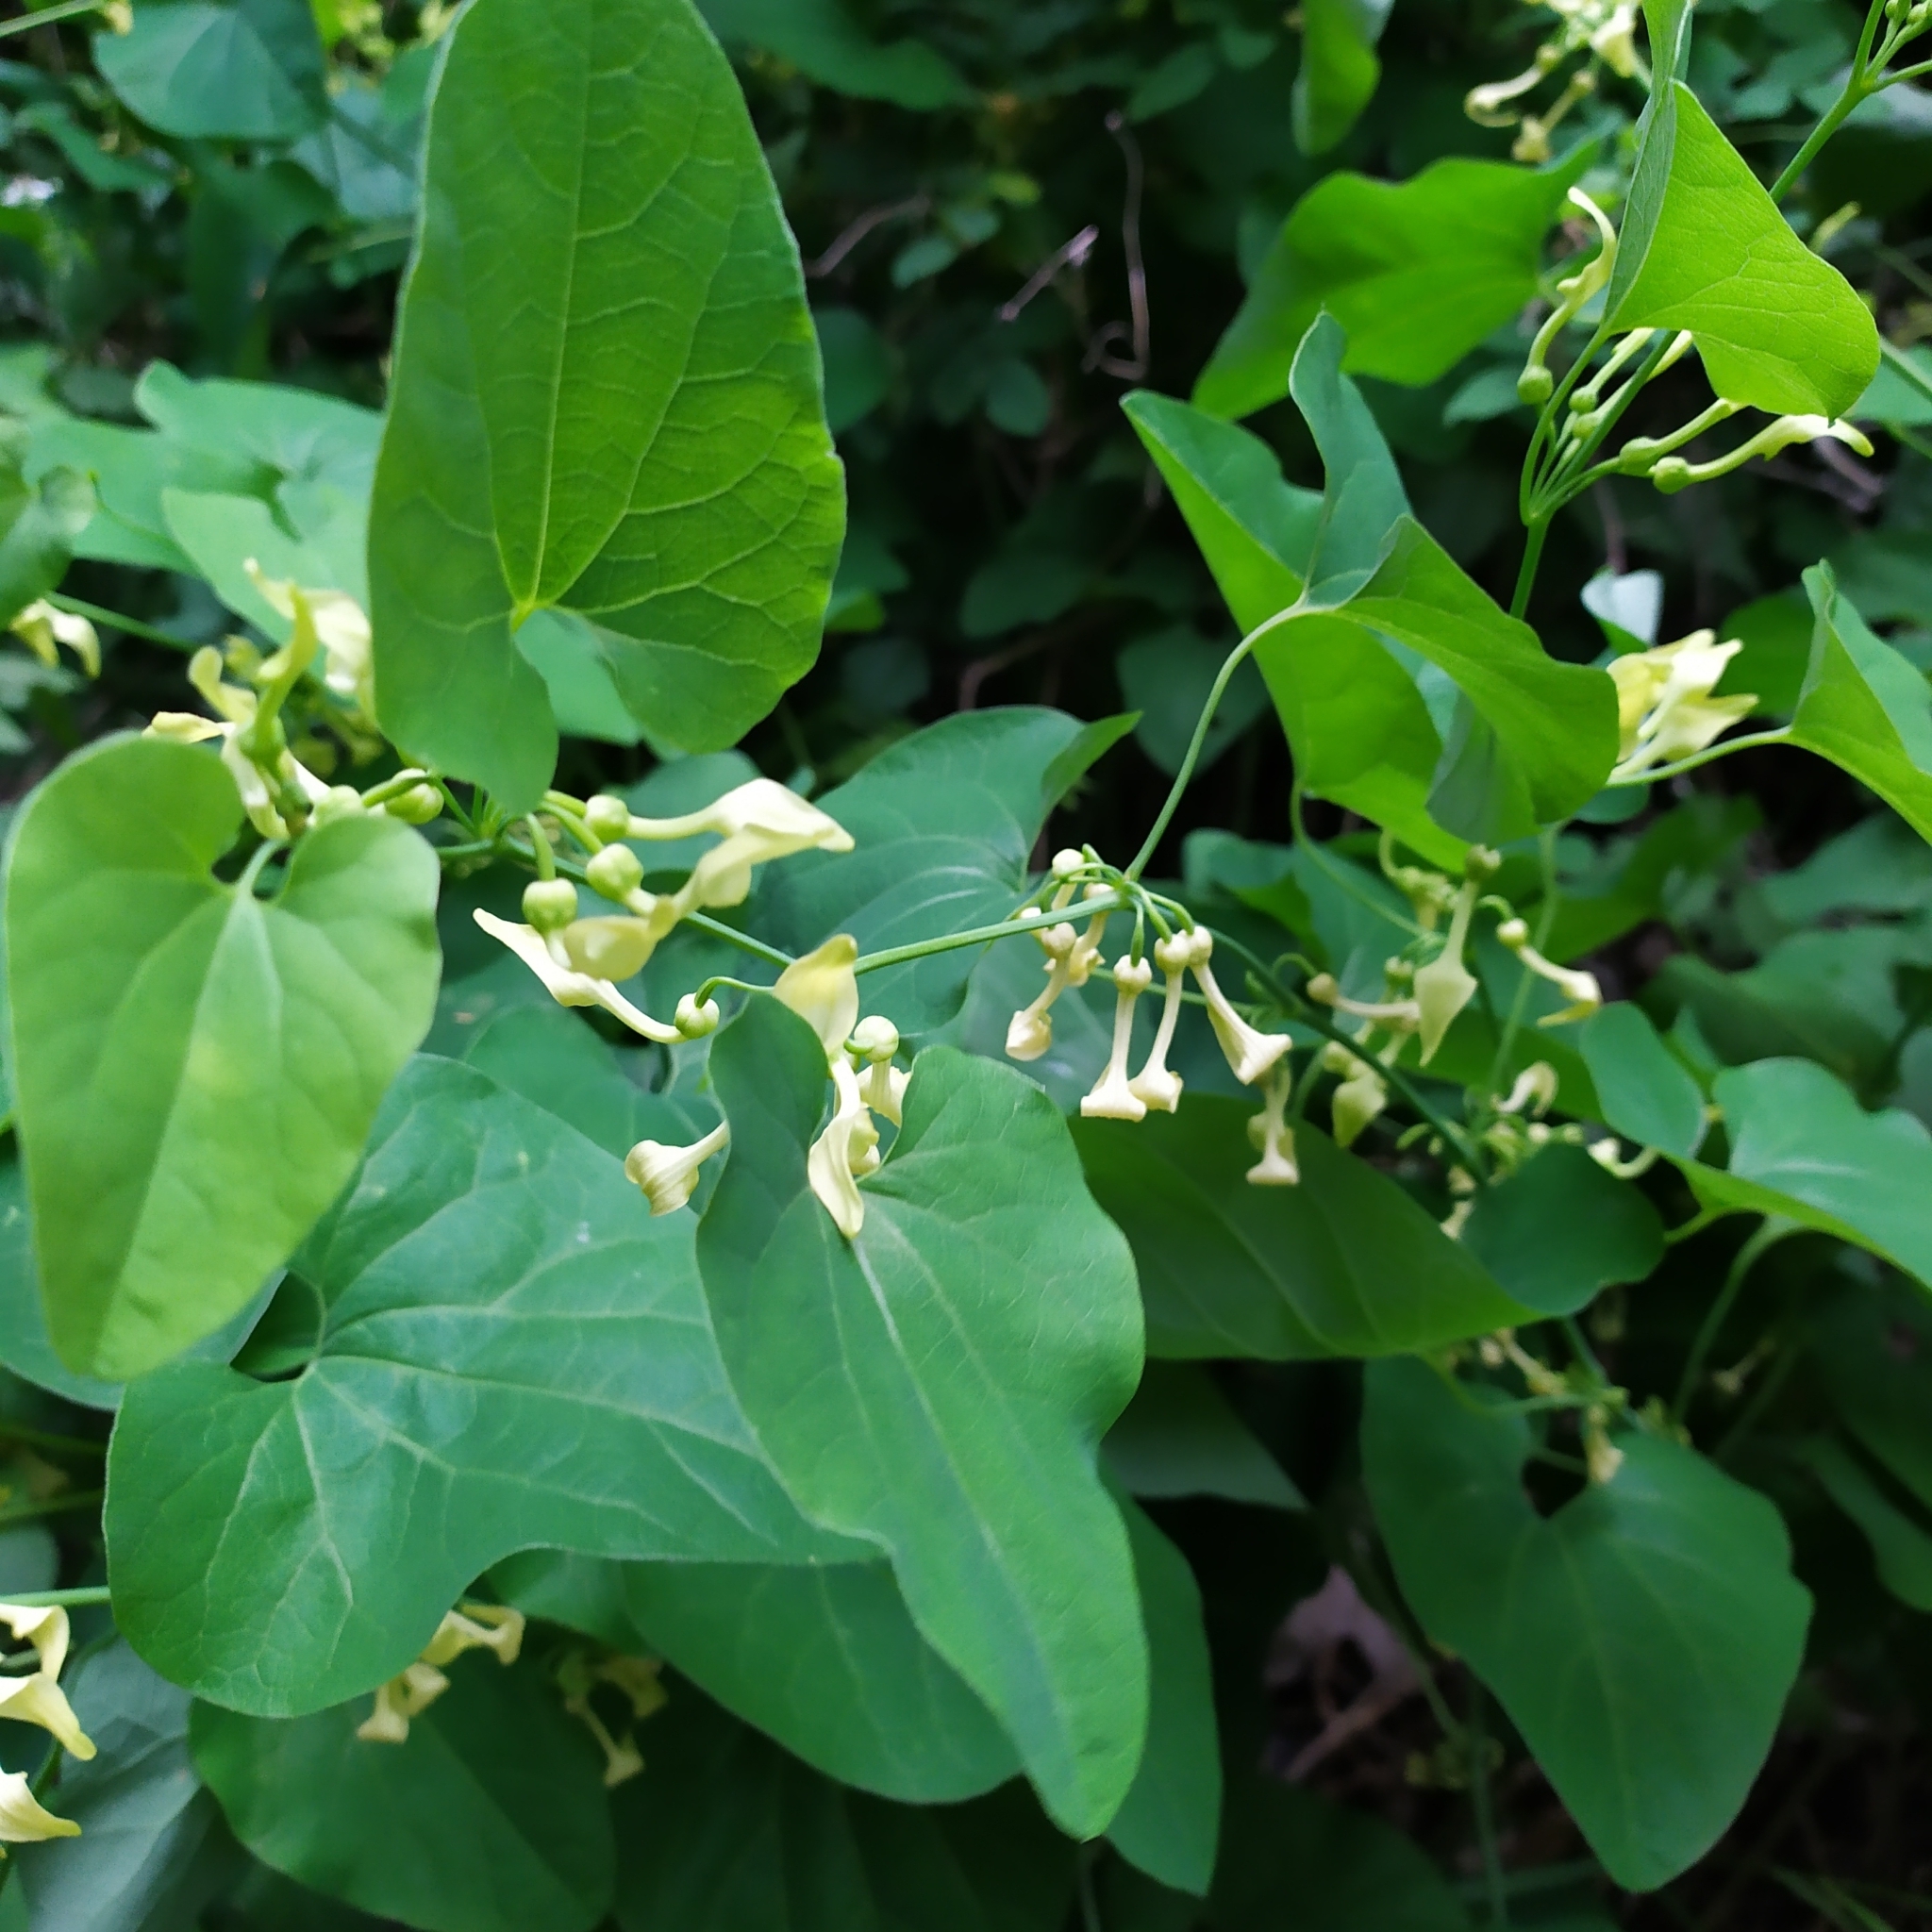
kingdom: Plantae
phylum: Tracheophyta
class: Magnoliopsida
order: Piperales
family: Aristolochiaceae
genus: Aristolochia
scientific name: Aristolochia clematitis
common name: Birthwort
